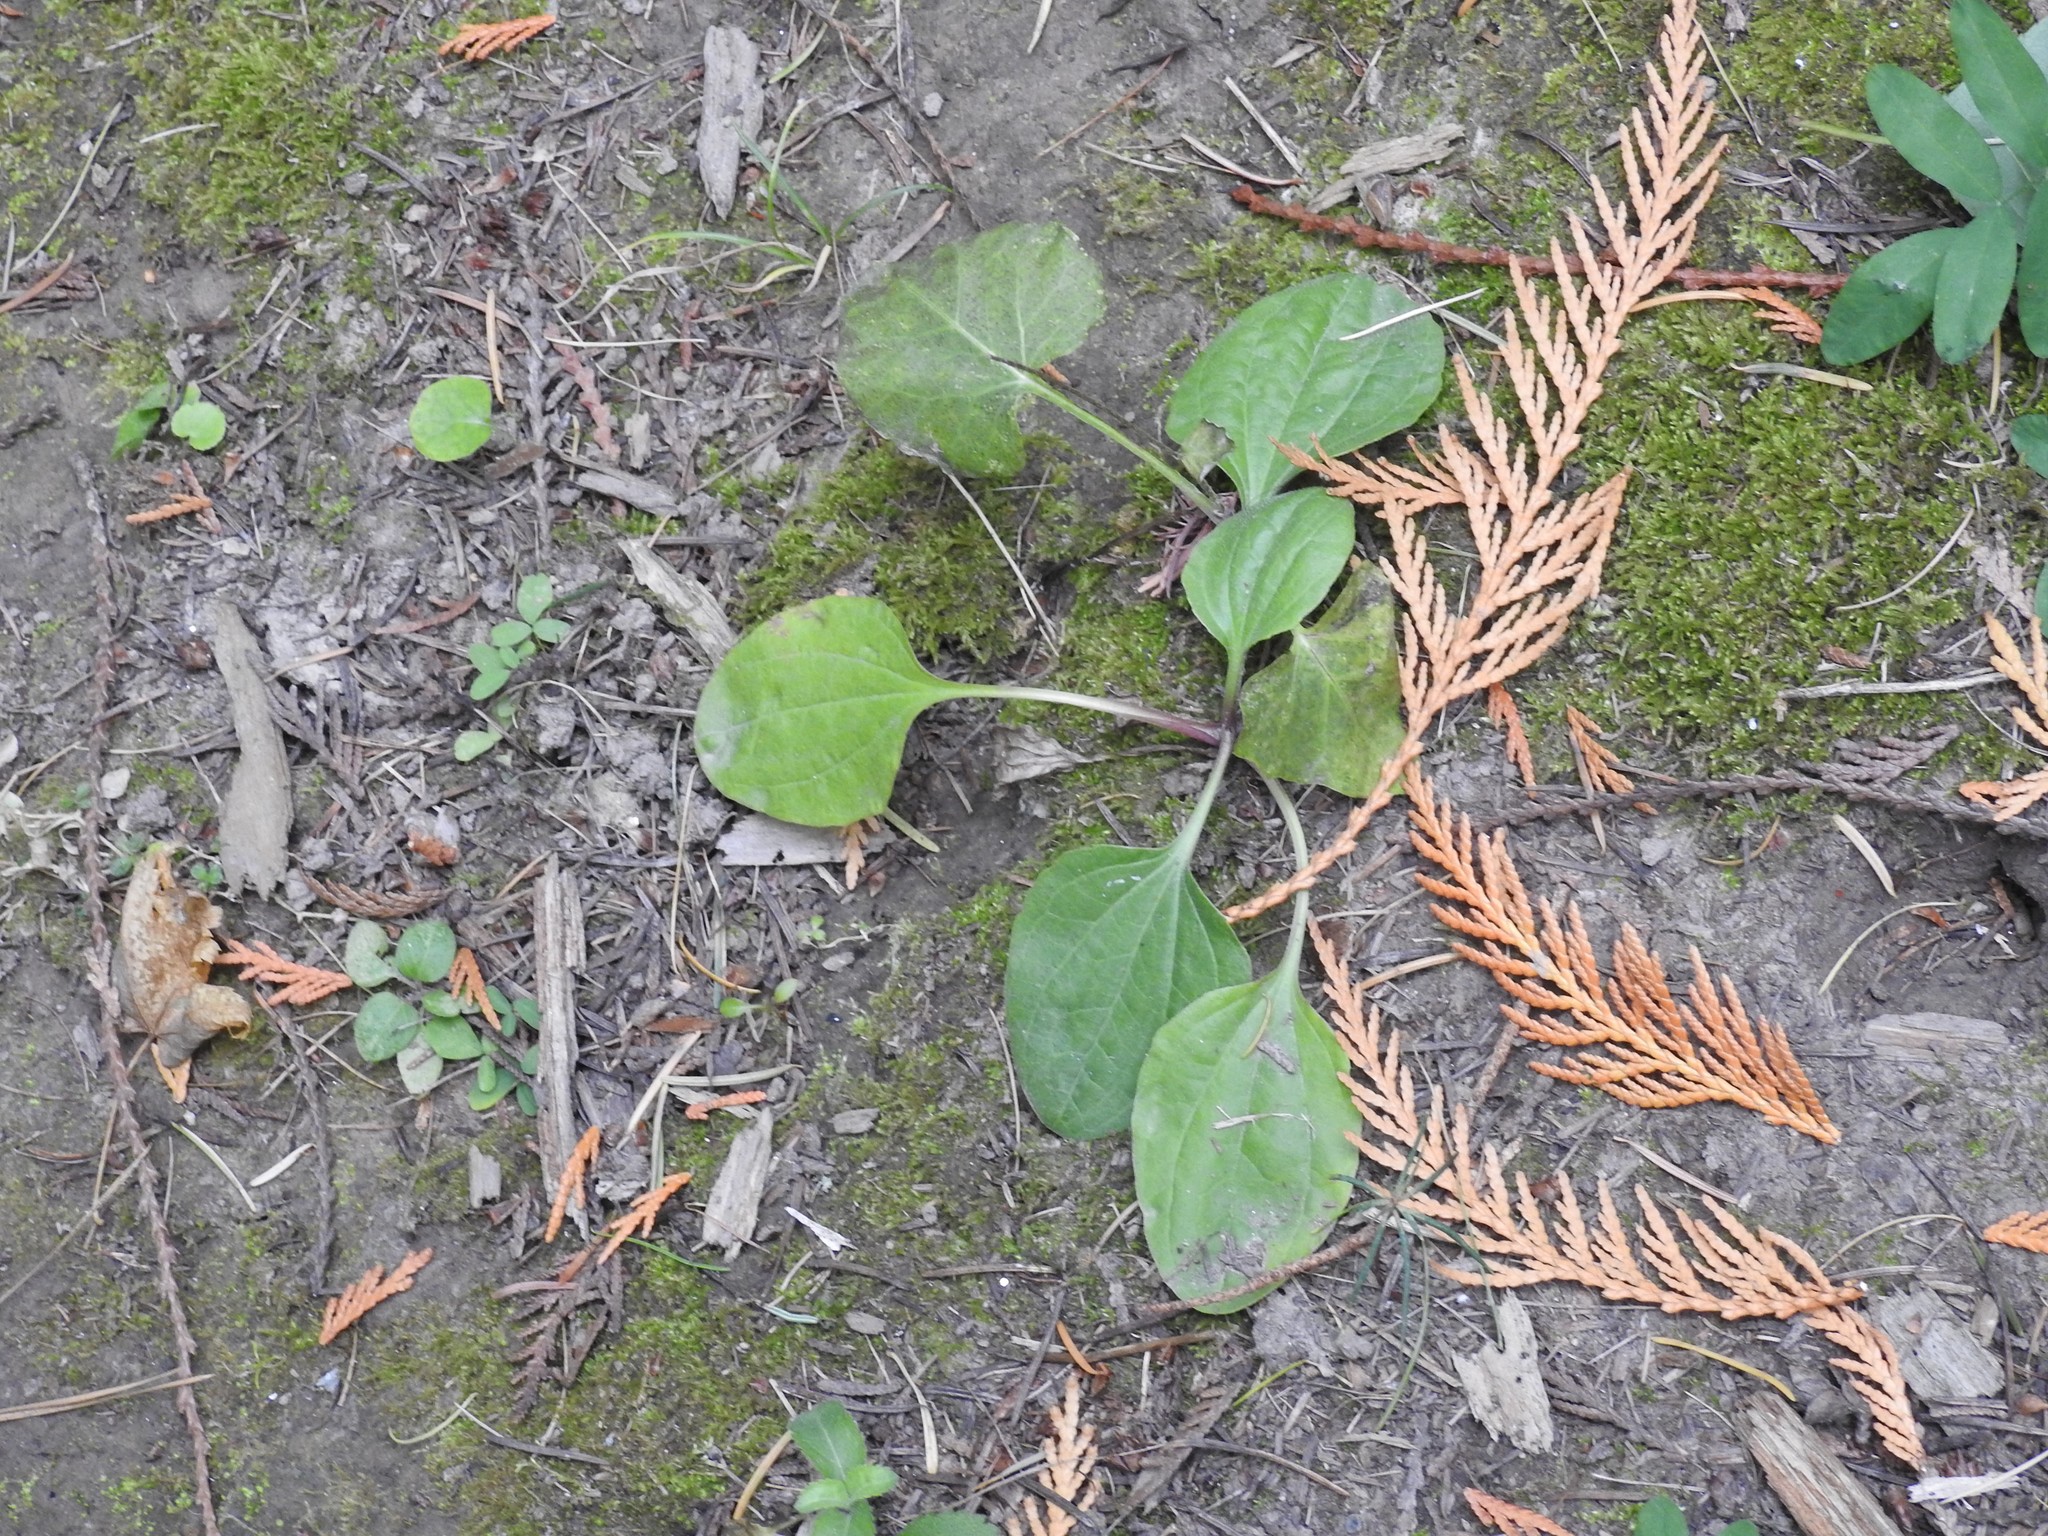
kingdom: Plantae
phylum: Tracheophyta
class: Magnoliopsida
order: Lamiales
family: Plantaginaceae
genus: Plantago
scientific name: Plantago major
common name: Common plantain
